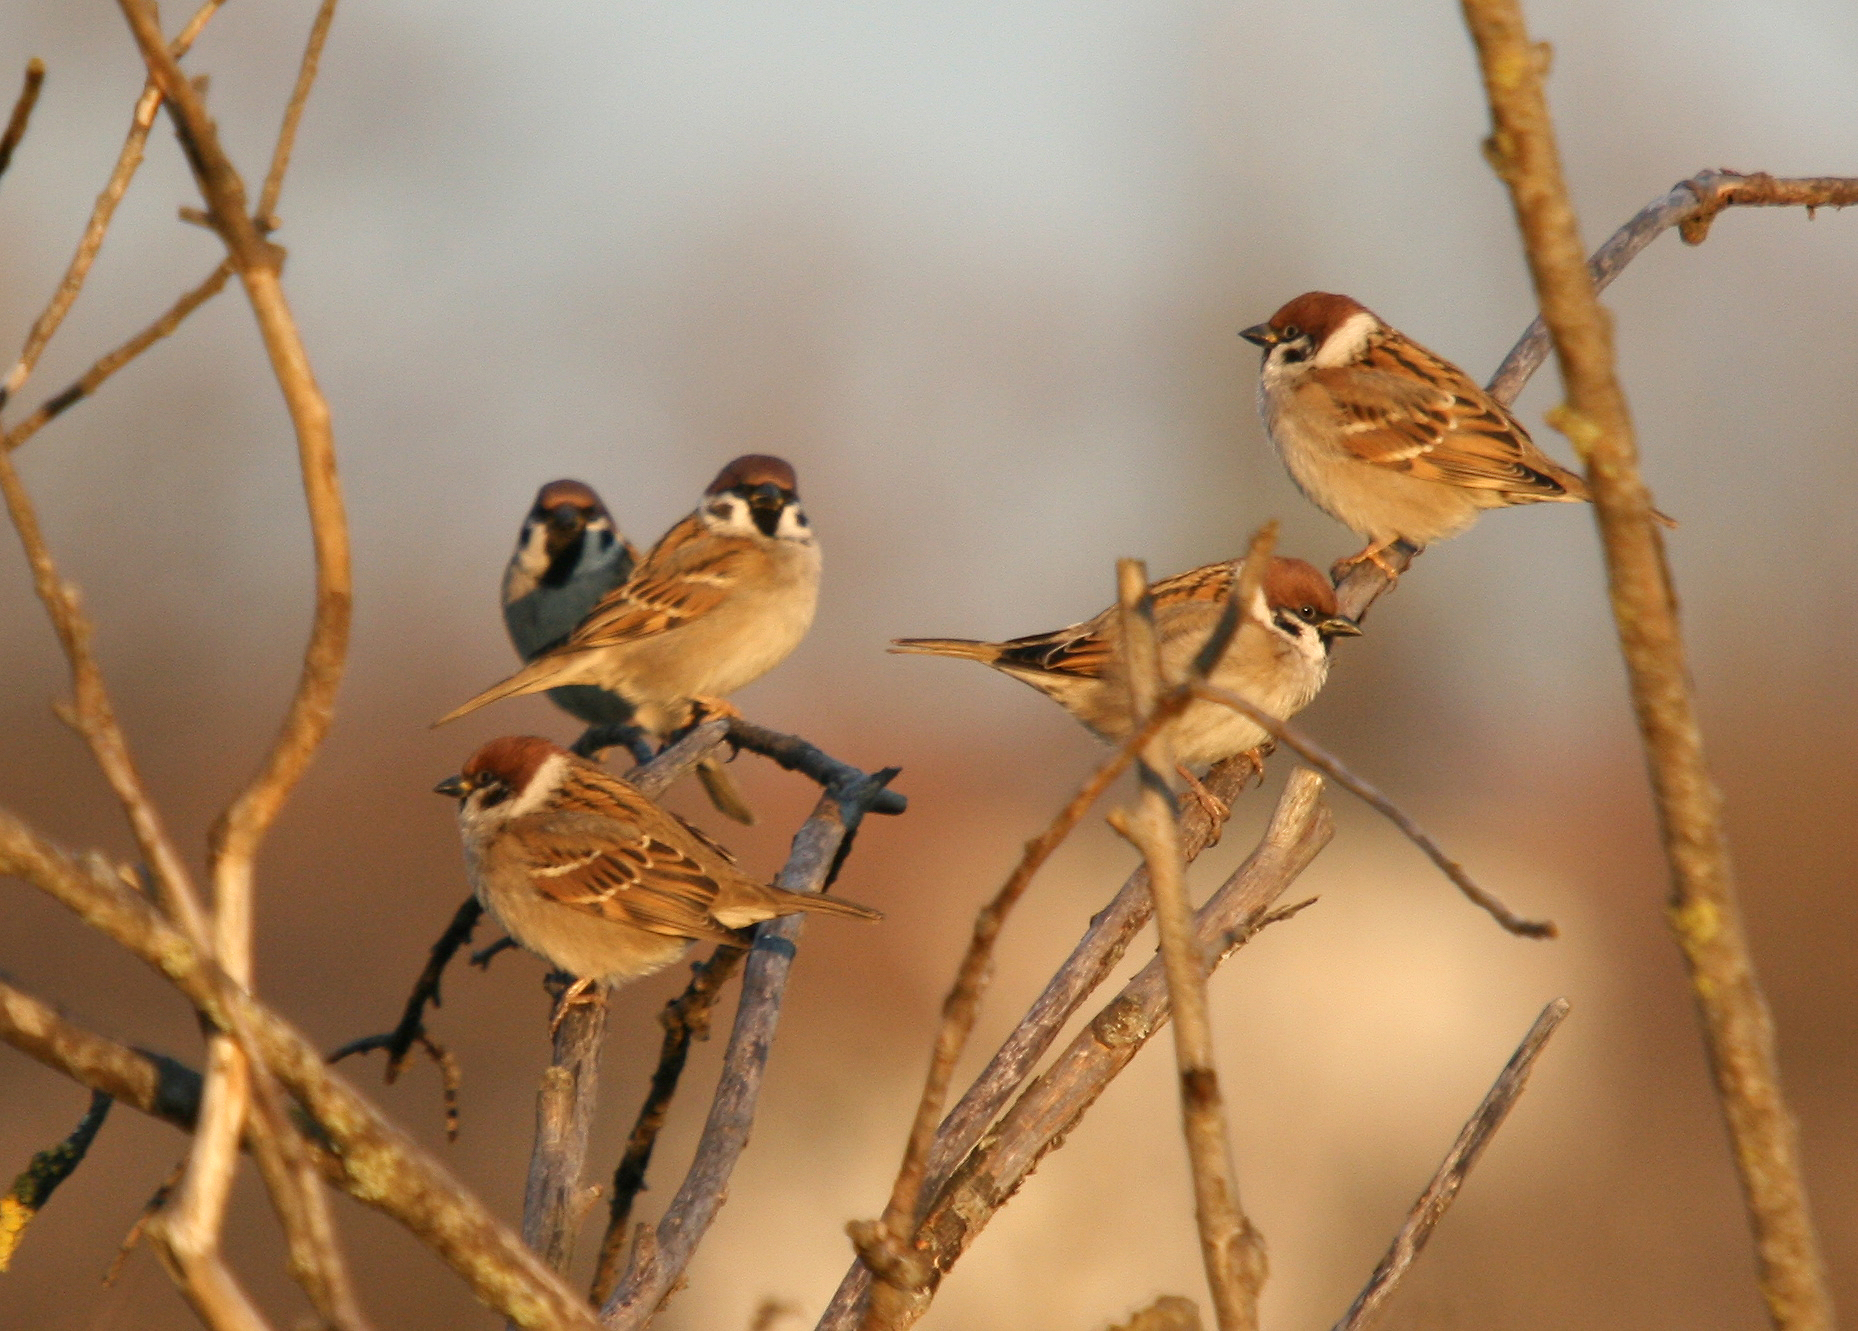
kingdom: Animalia
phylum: Chordata
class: Aves
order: Passeriformes
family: Passeridae
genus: Passer
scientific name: Passer montanus
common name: Eurasian tree sparrow
